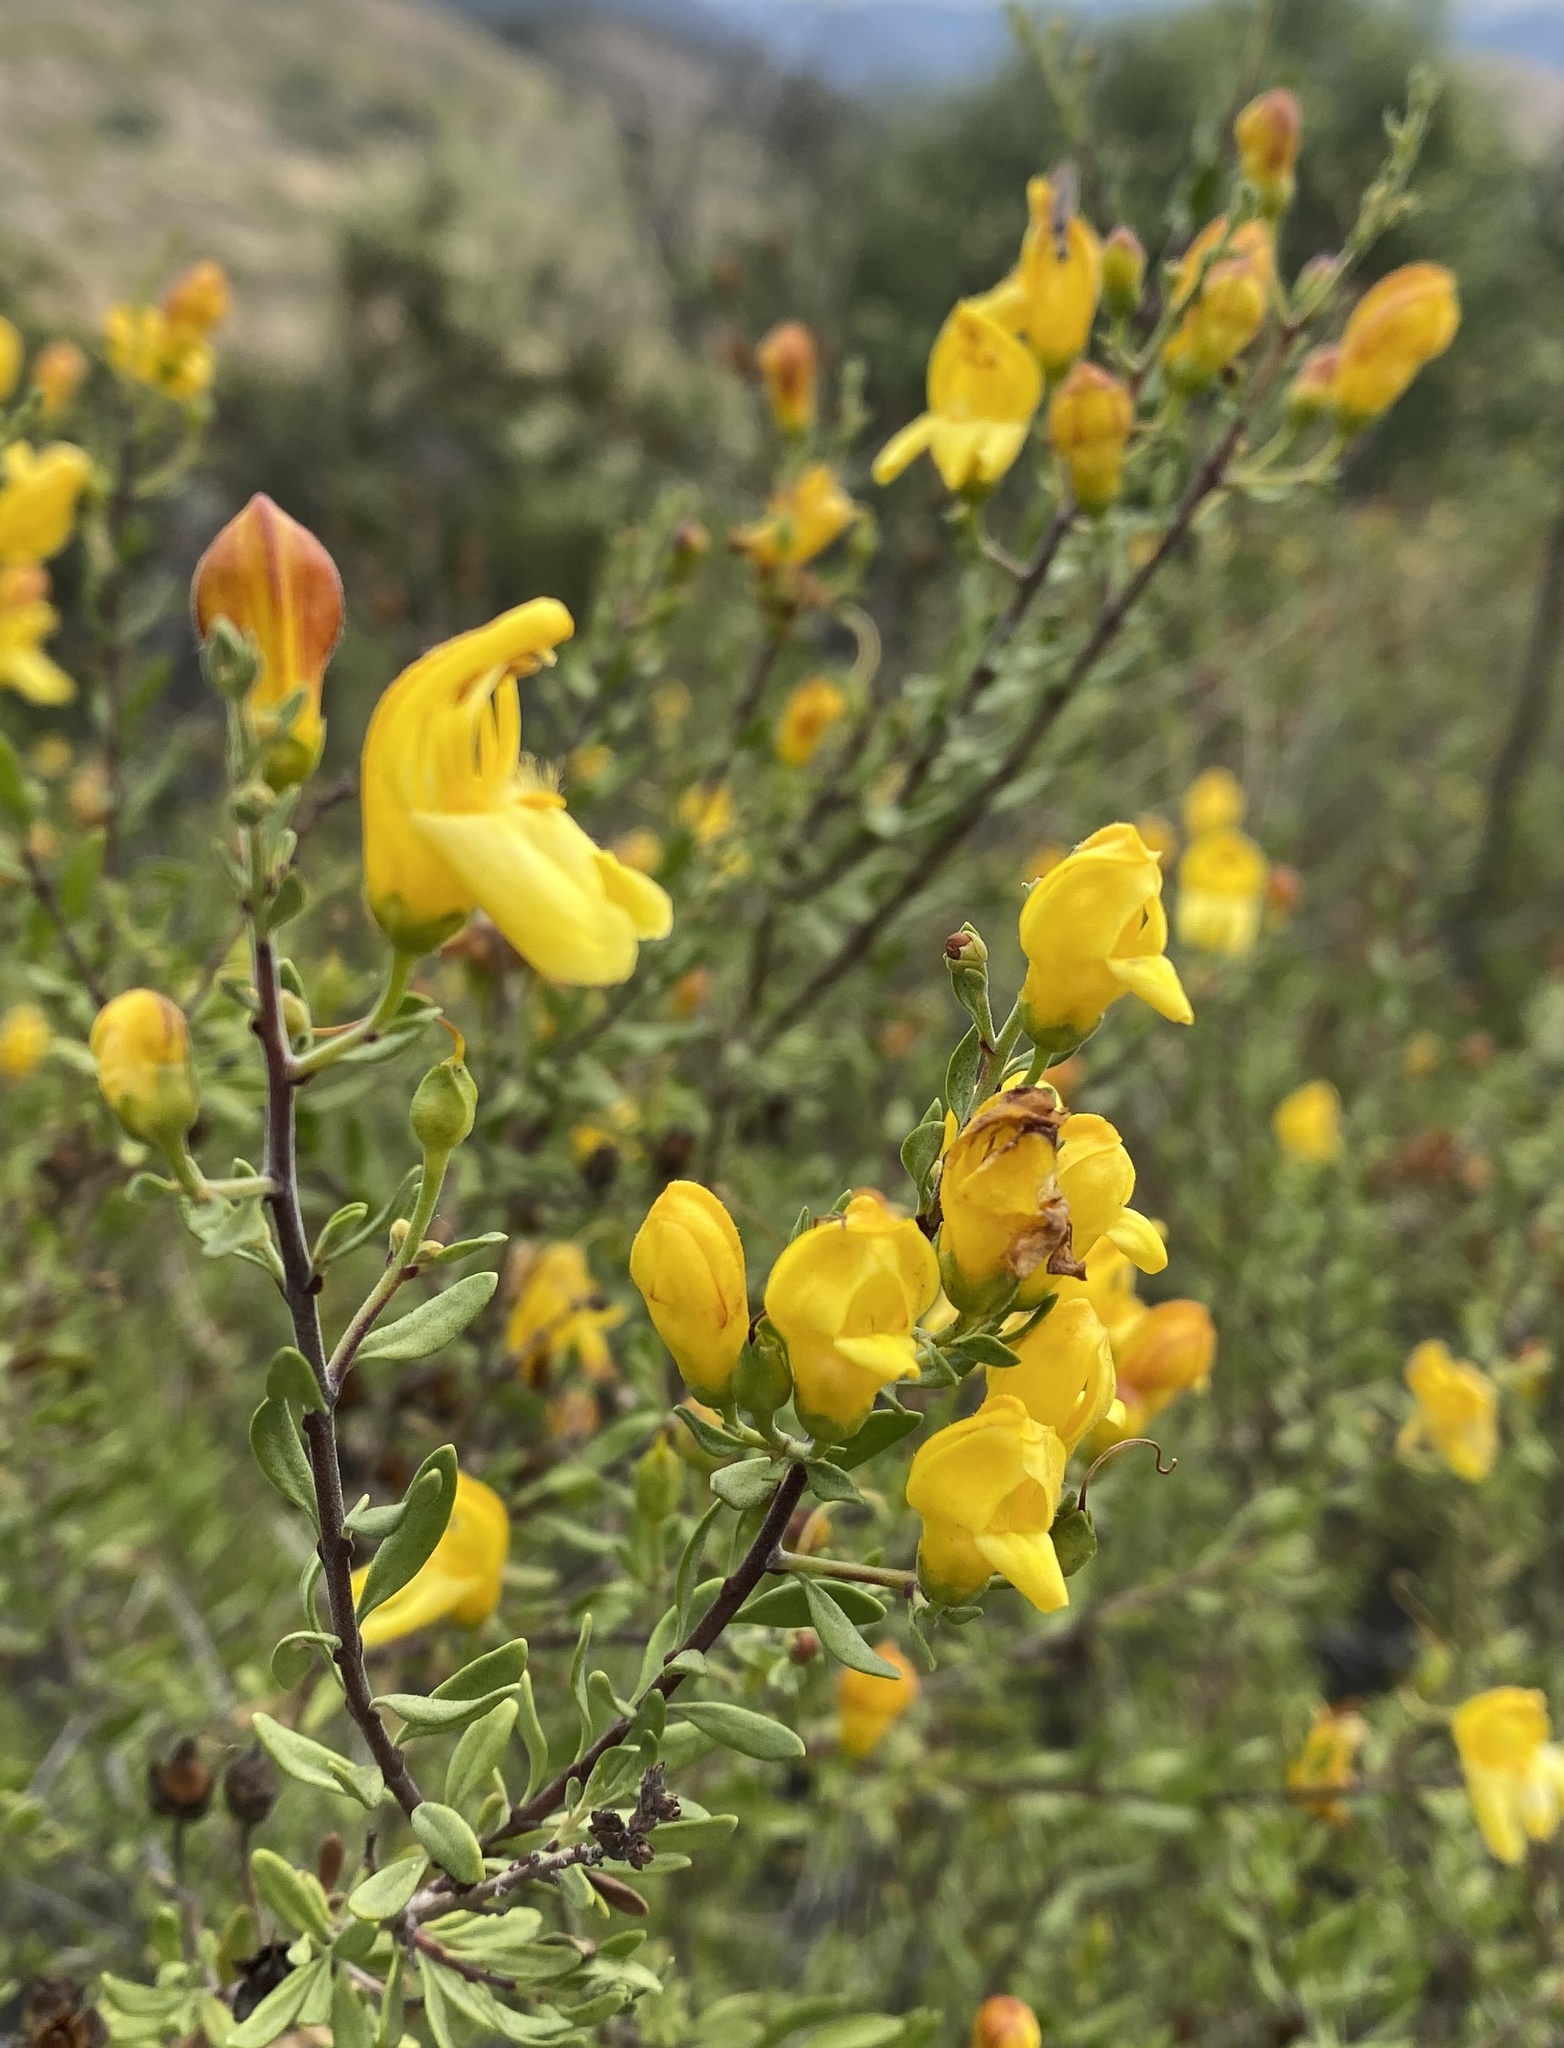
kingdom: Plantae
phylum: Tracheophyta
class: Magnoliopsida
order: Lamiales
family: Plantaginaceae
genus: Keckiella
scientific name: Keckiella antirrhinoides
